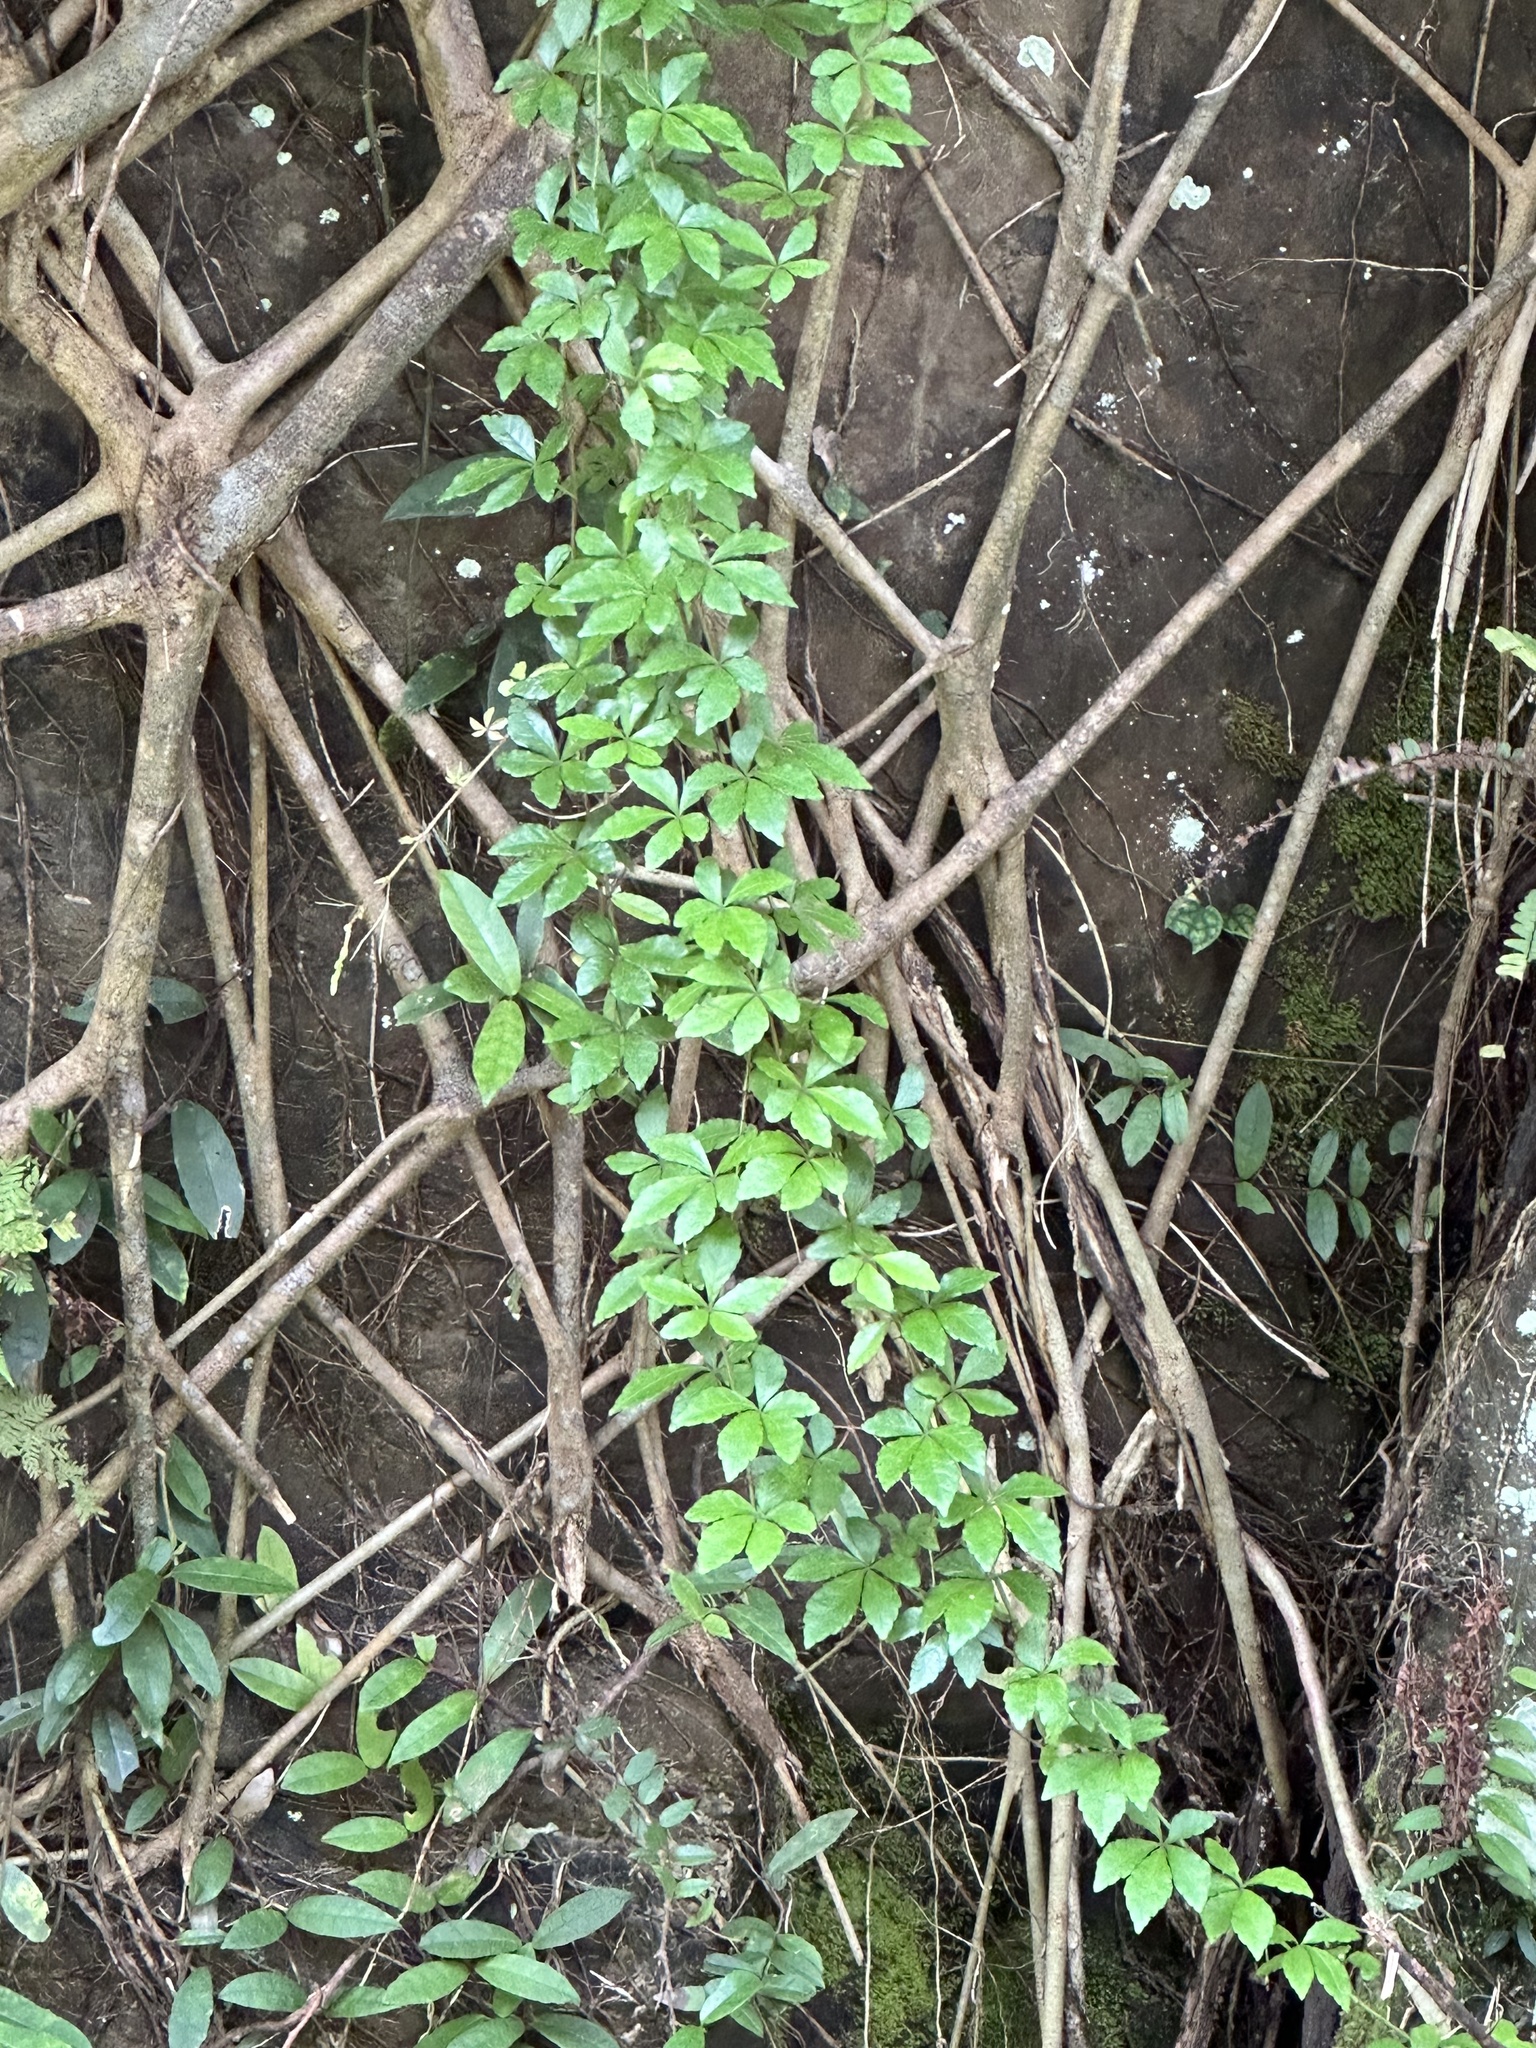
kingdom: Plantae
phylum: Tracheophyta
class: Magnoliopsida
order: Vitales
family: Vitaceae
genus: Tetrastigma
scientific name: Tetrastigma obtectum
